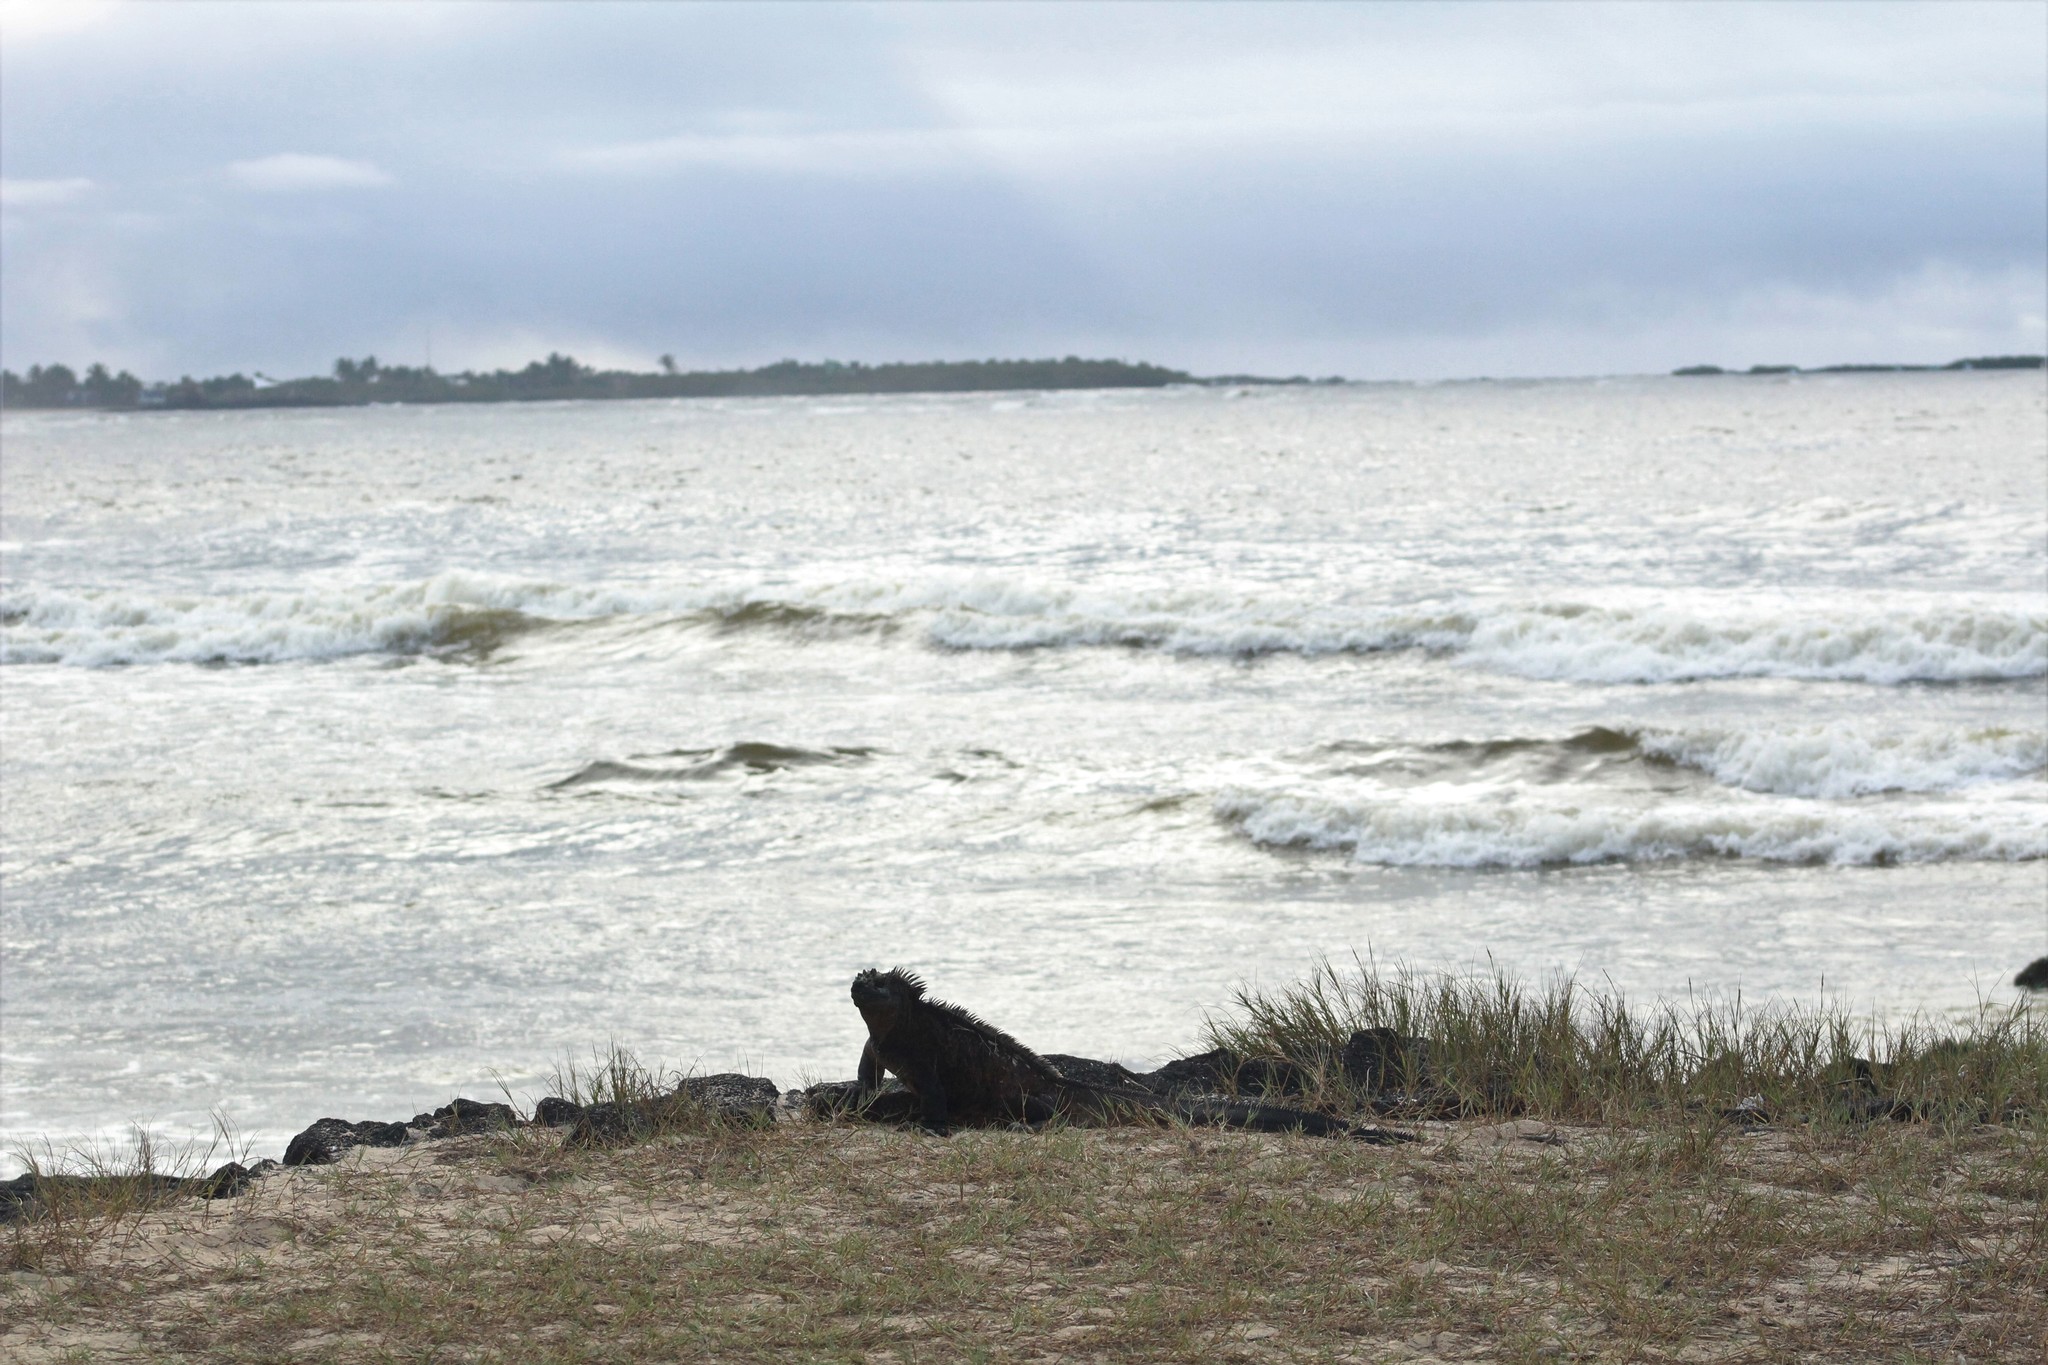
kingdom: Animalia
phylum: Chordata
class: Squamata
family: Iguanidae
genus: Amblyrhynchus
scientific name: Amblyrhynchus cristatus
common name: Marine iguana
